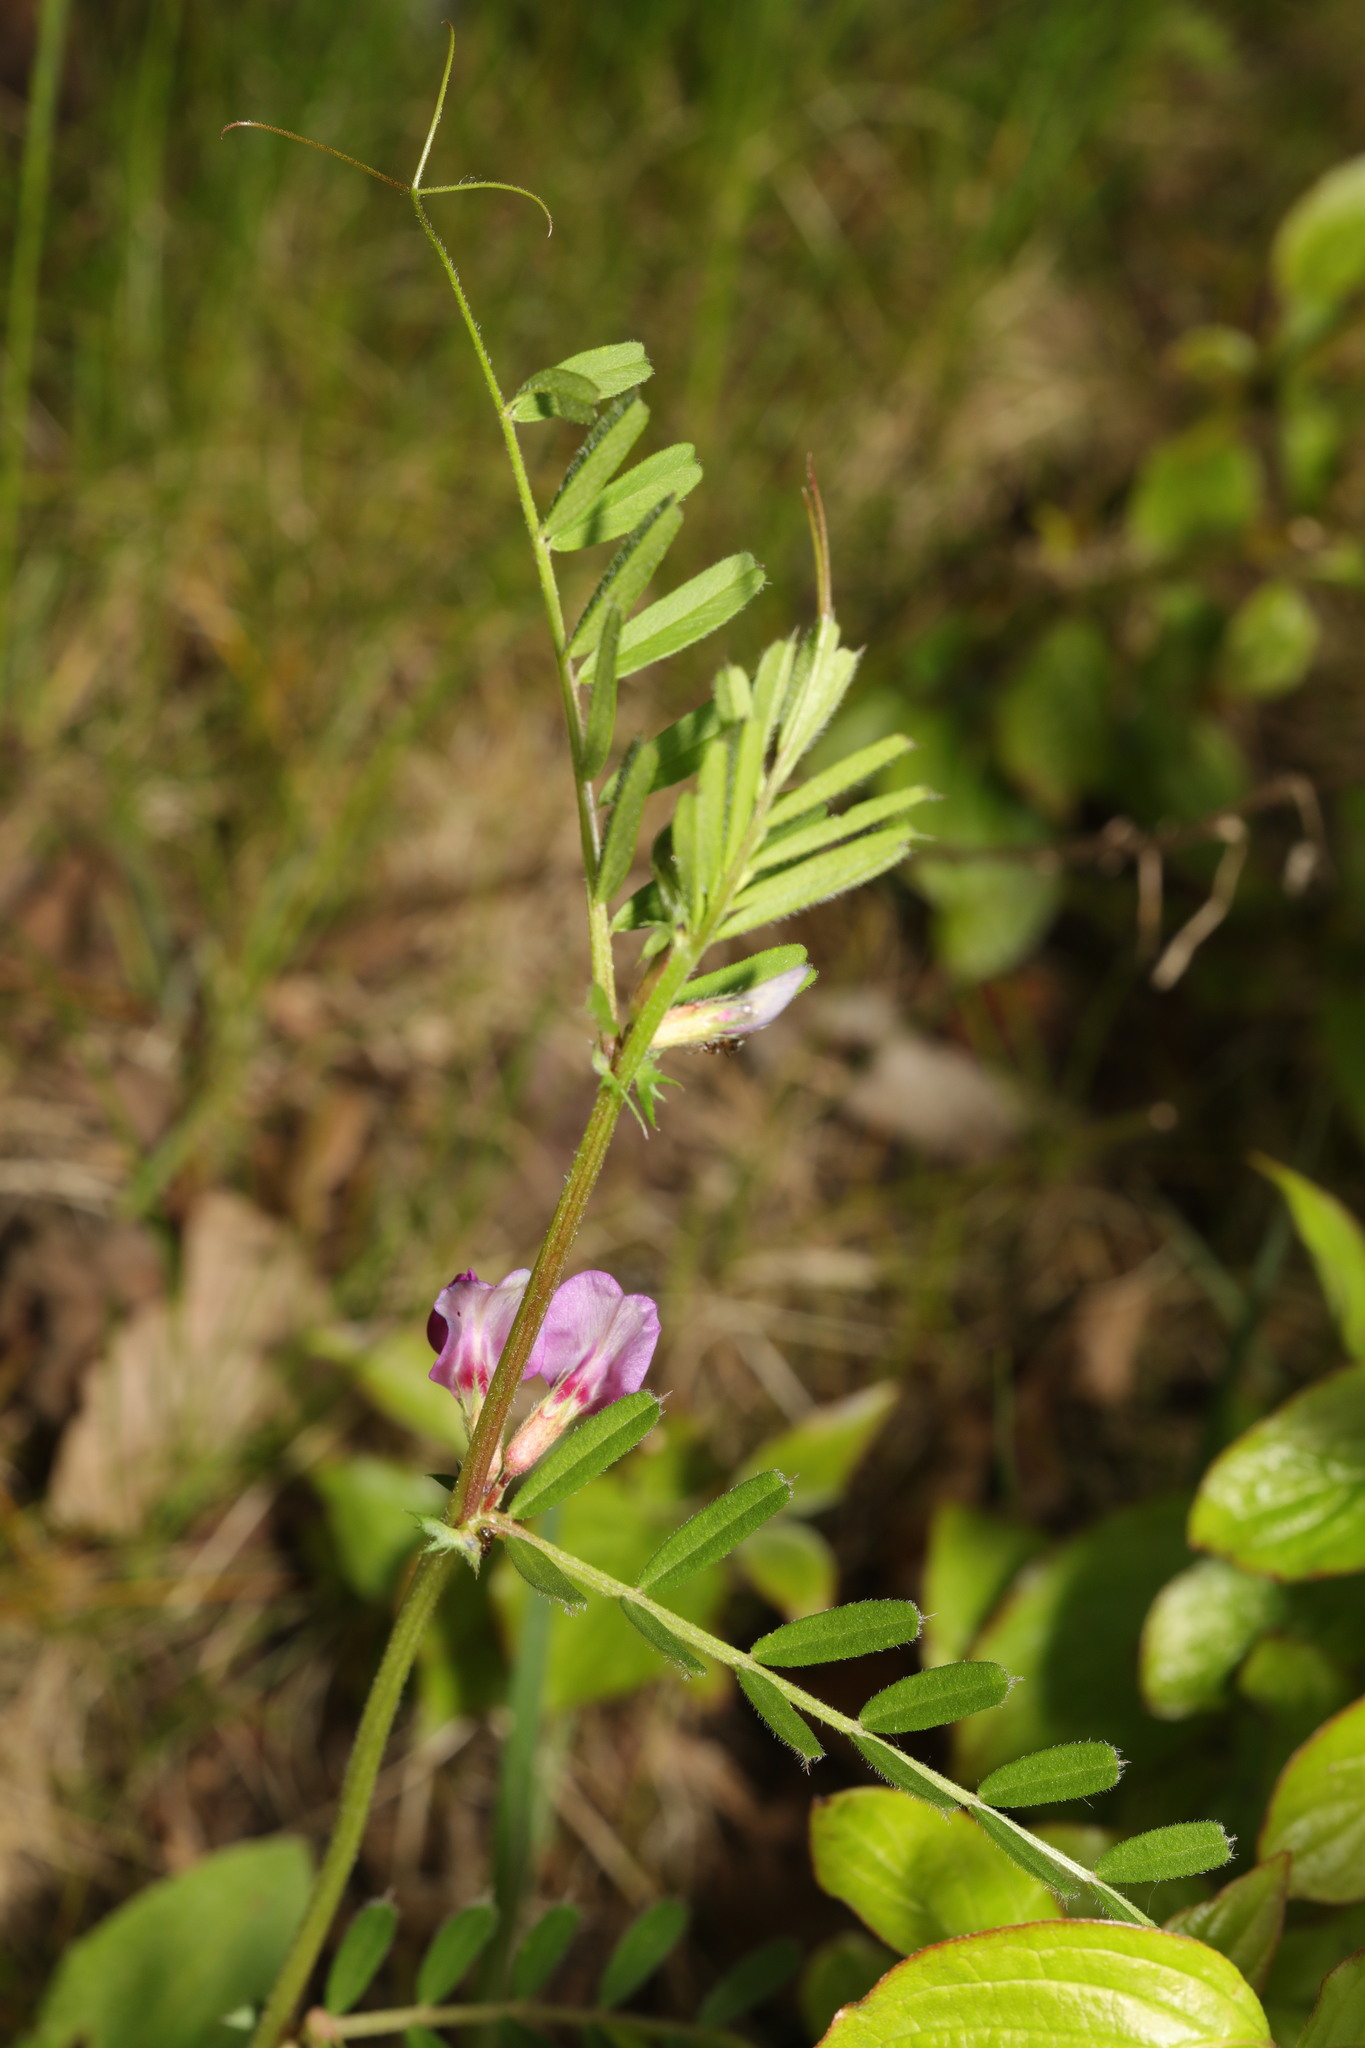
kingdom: Plantae
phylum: Tracheophyta
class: Magnoliopsida
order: Fabales
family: Fabaceae
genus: Vicia
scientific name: Vicia sativa
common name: Garden vetch
